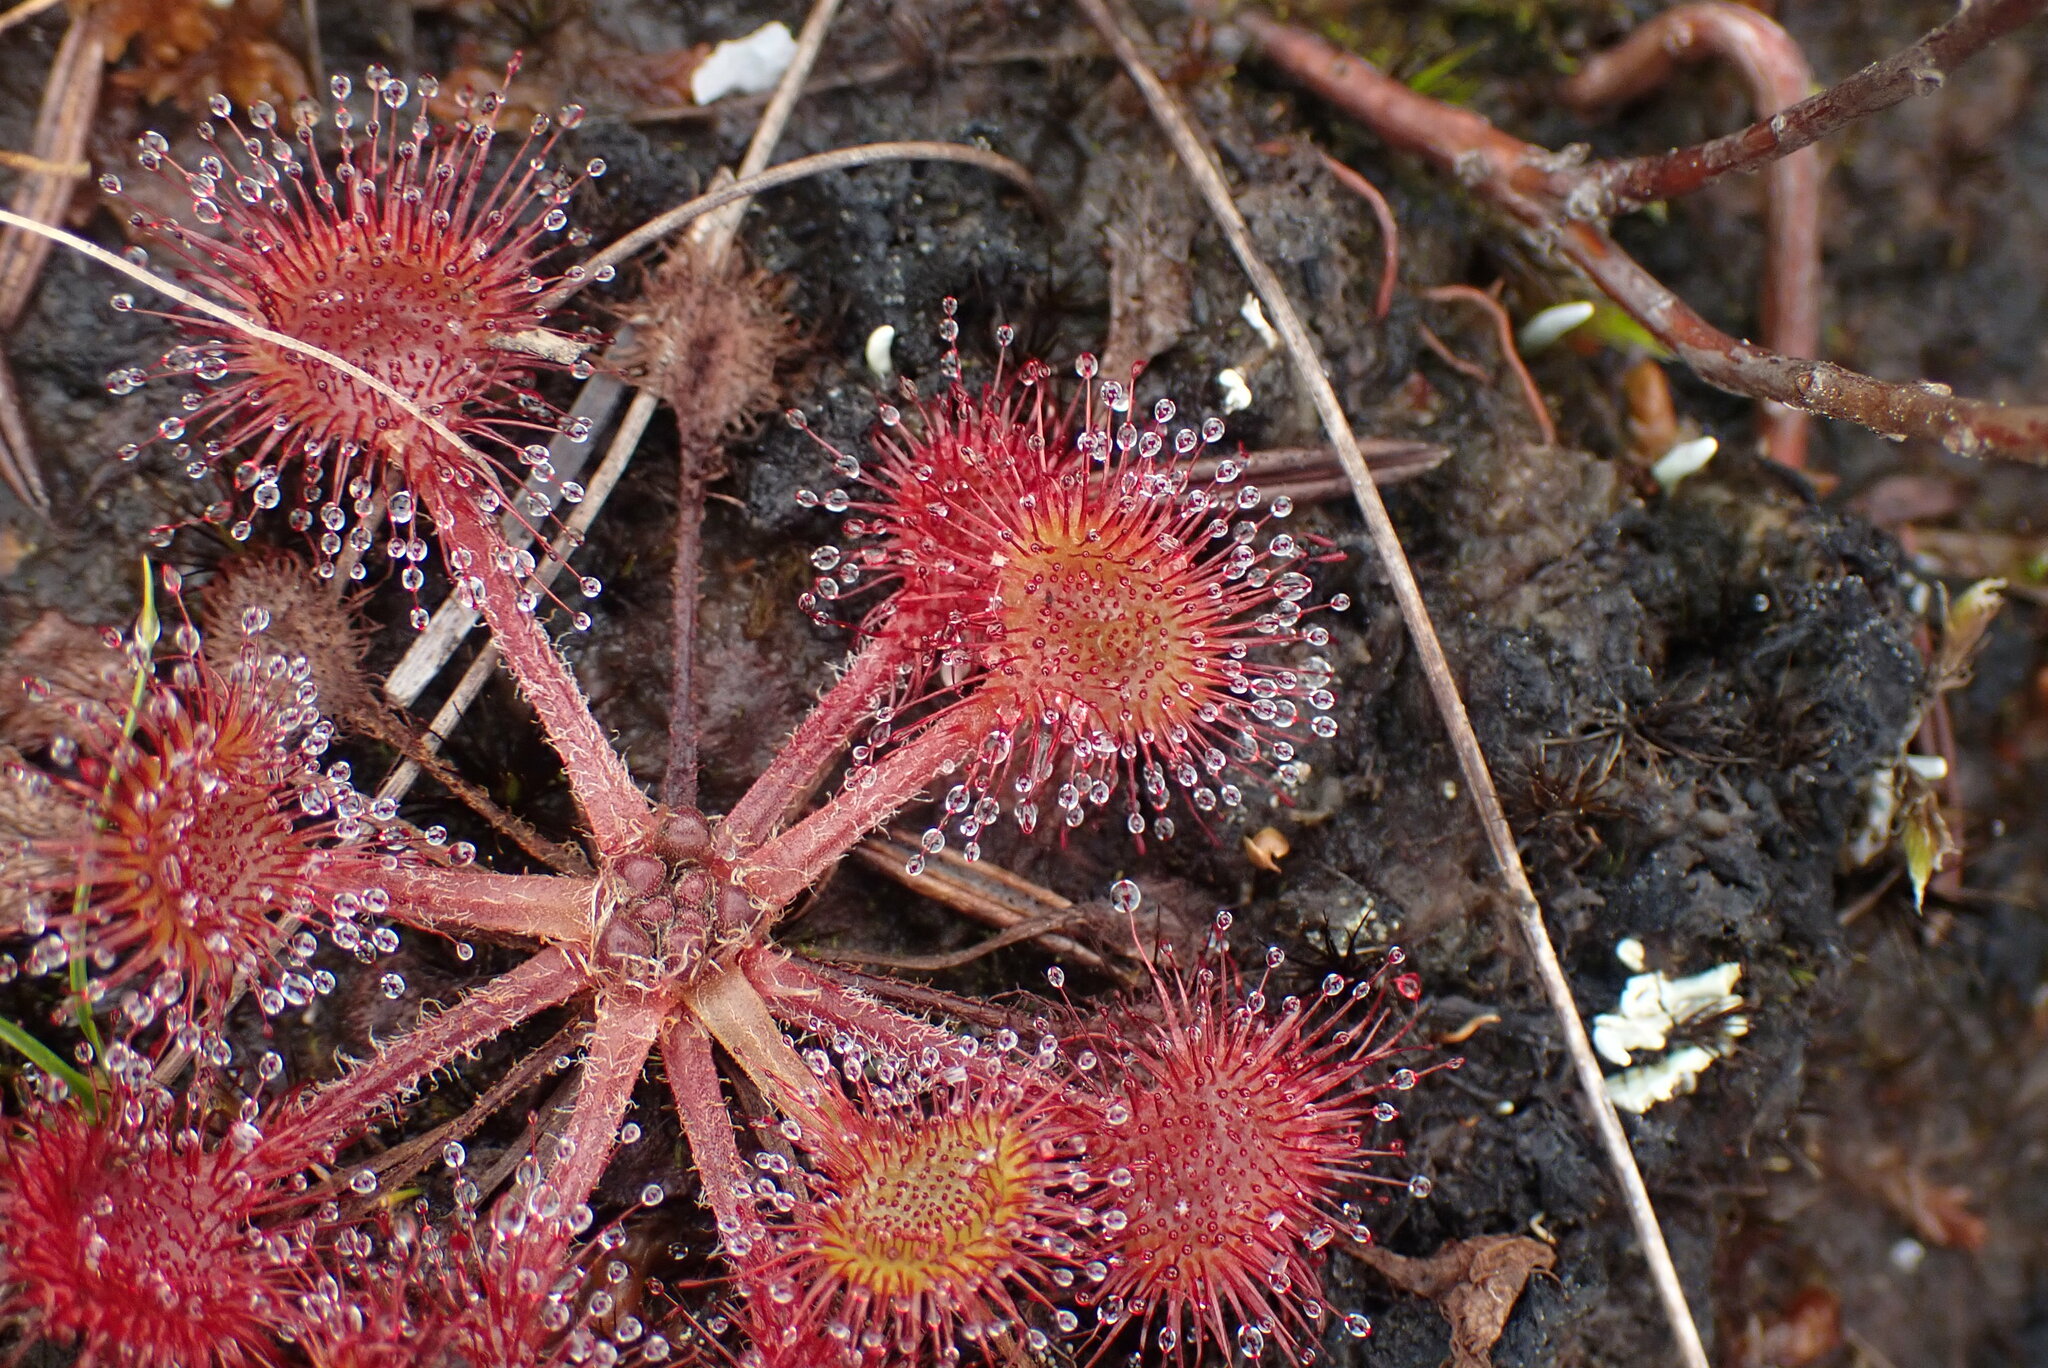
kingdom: Plantae
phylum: Tracheophyta
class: Magnoliopsida
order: Caryophyllales
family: Droseraceae
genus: Drosera
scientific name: Drosera rotundifolia
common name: Round-leaved sundew
